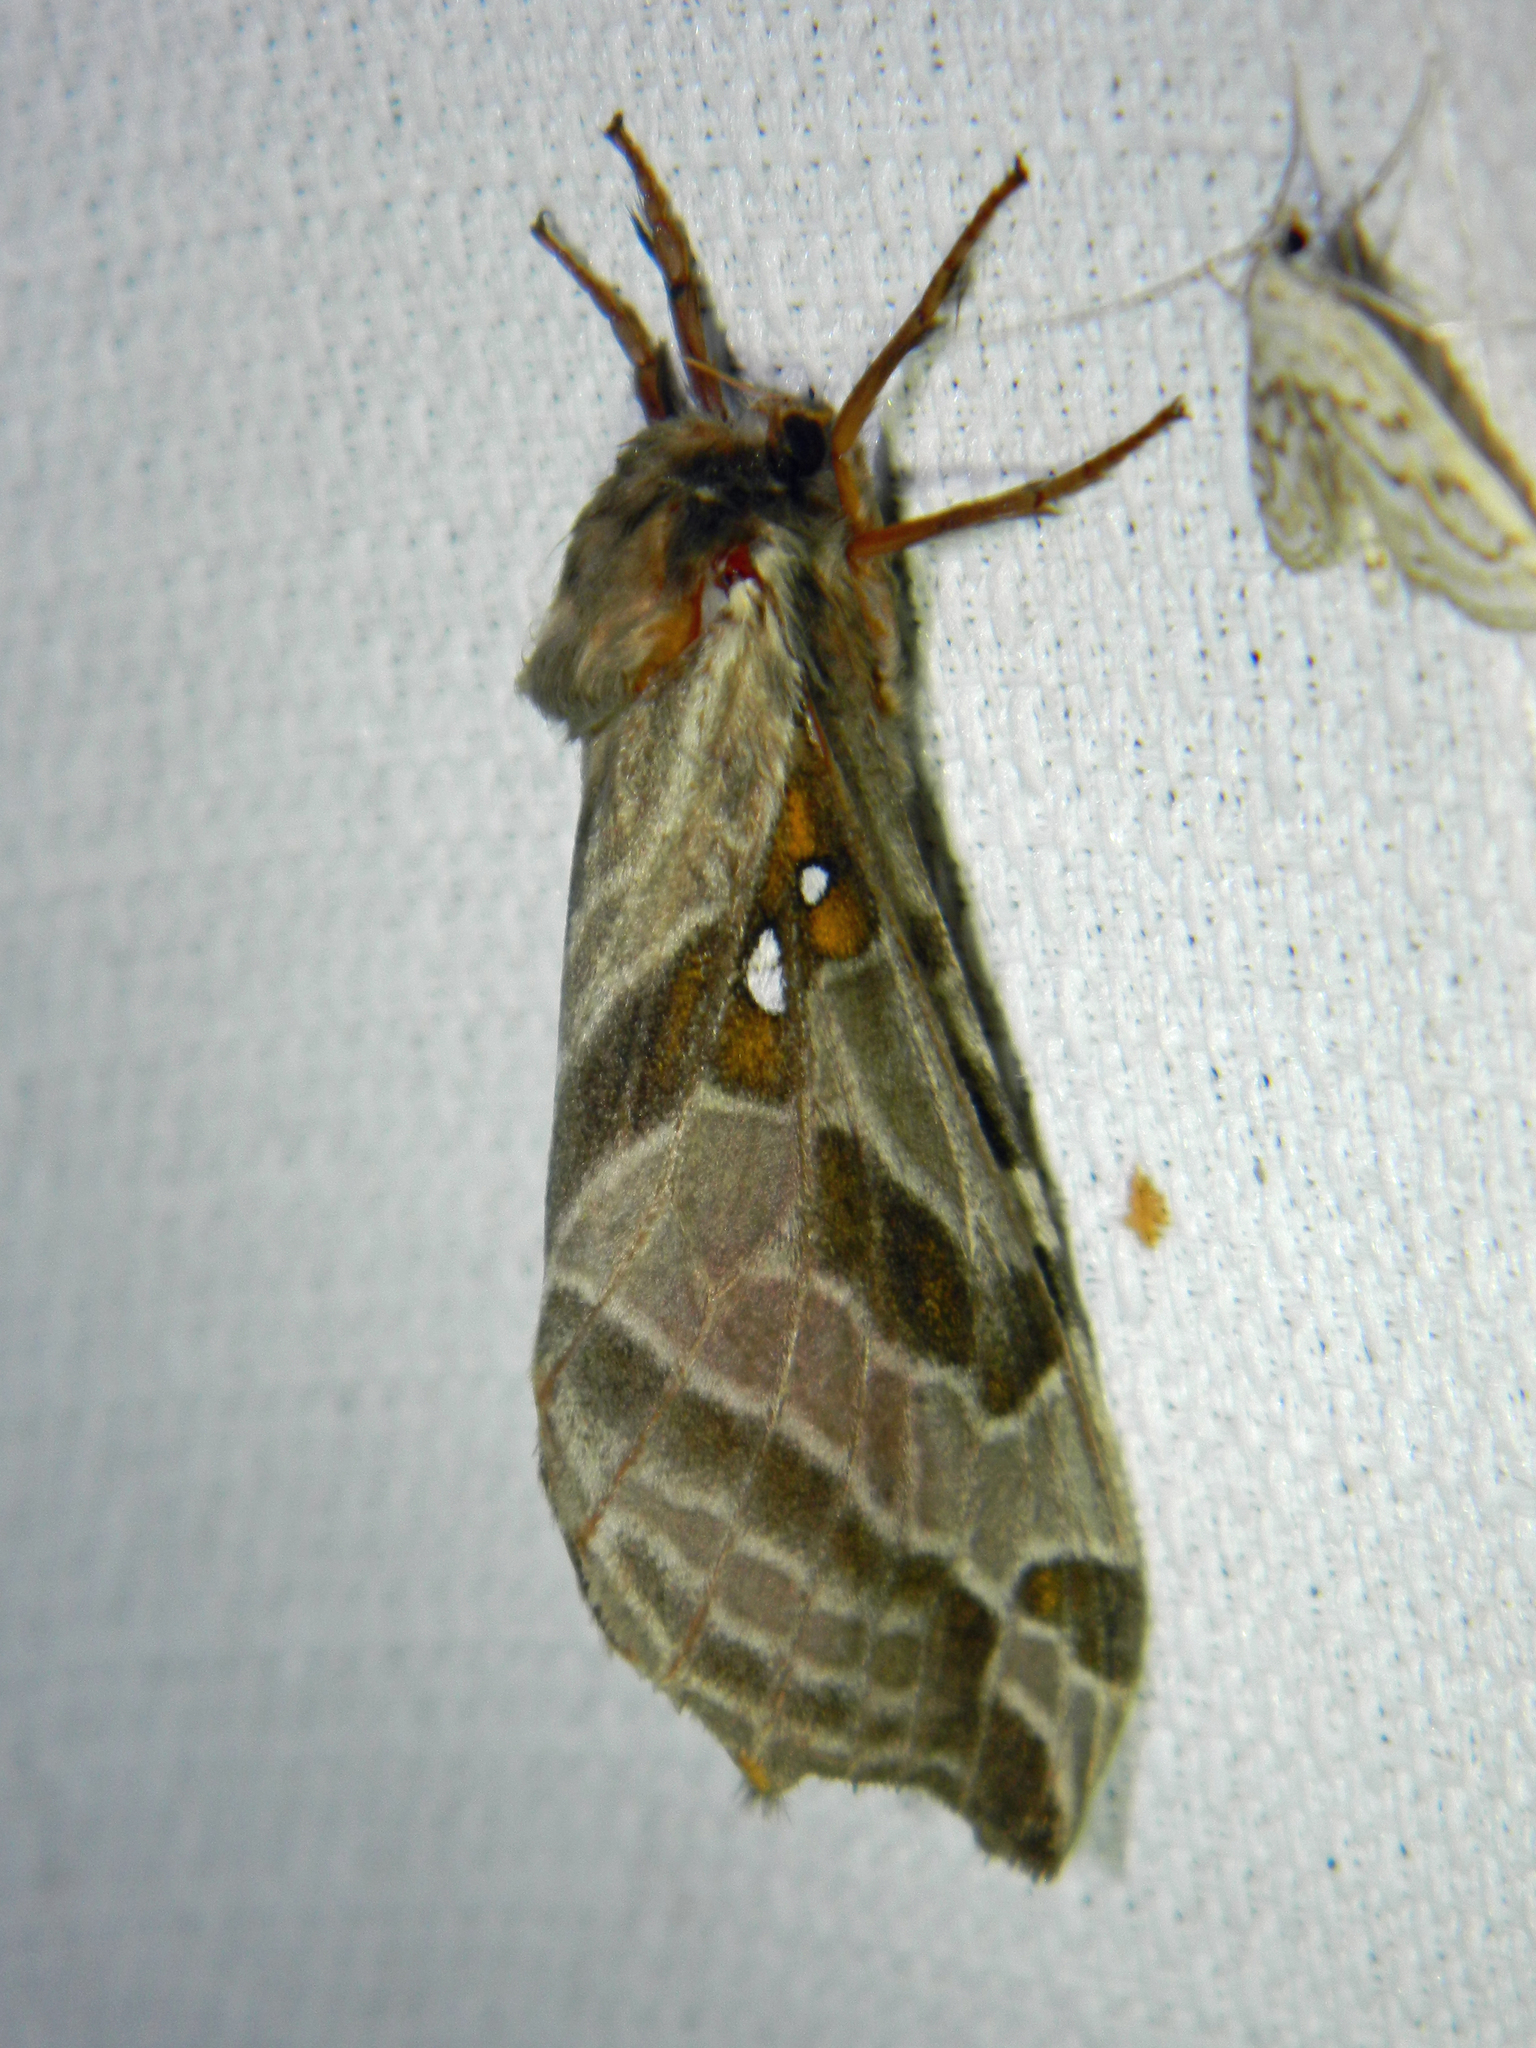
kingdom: Animalia
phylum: Arthropoda
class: Insecta
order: Lepidoptera
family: Hepialidae
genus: Sthenopis
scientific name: Sthenopis argenteomaculatus
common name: Silver-spotted ghost moth
